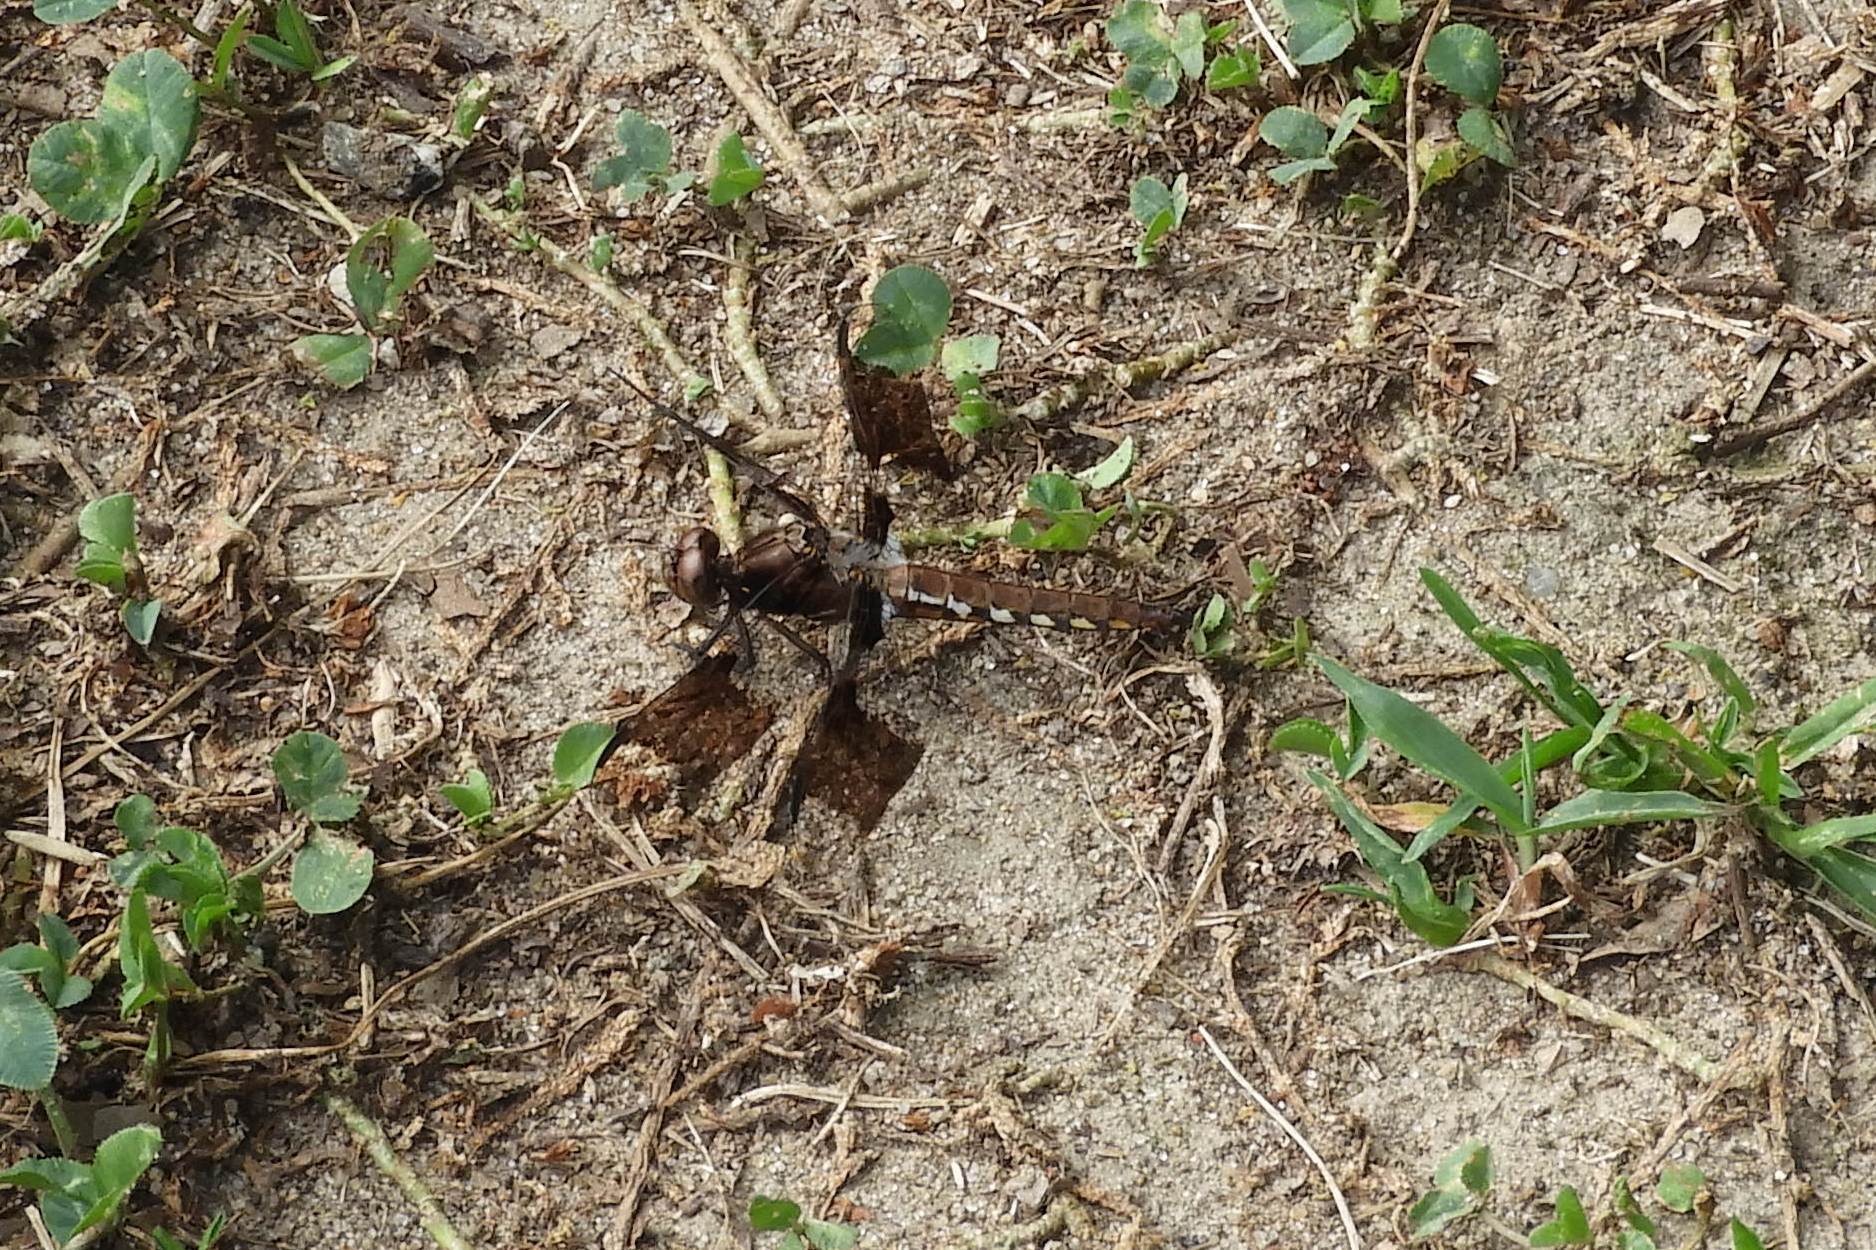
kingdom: Animalia
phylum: Arthropoda
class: Insecta
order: Odonata
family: Libellulidae
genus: Plathemis
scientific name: Plathemis lydia
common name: Common whitetail
